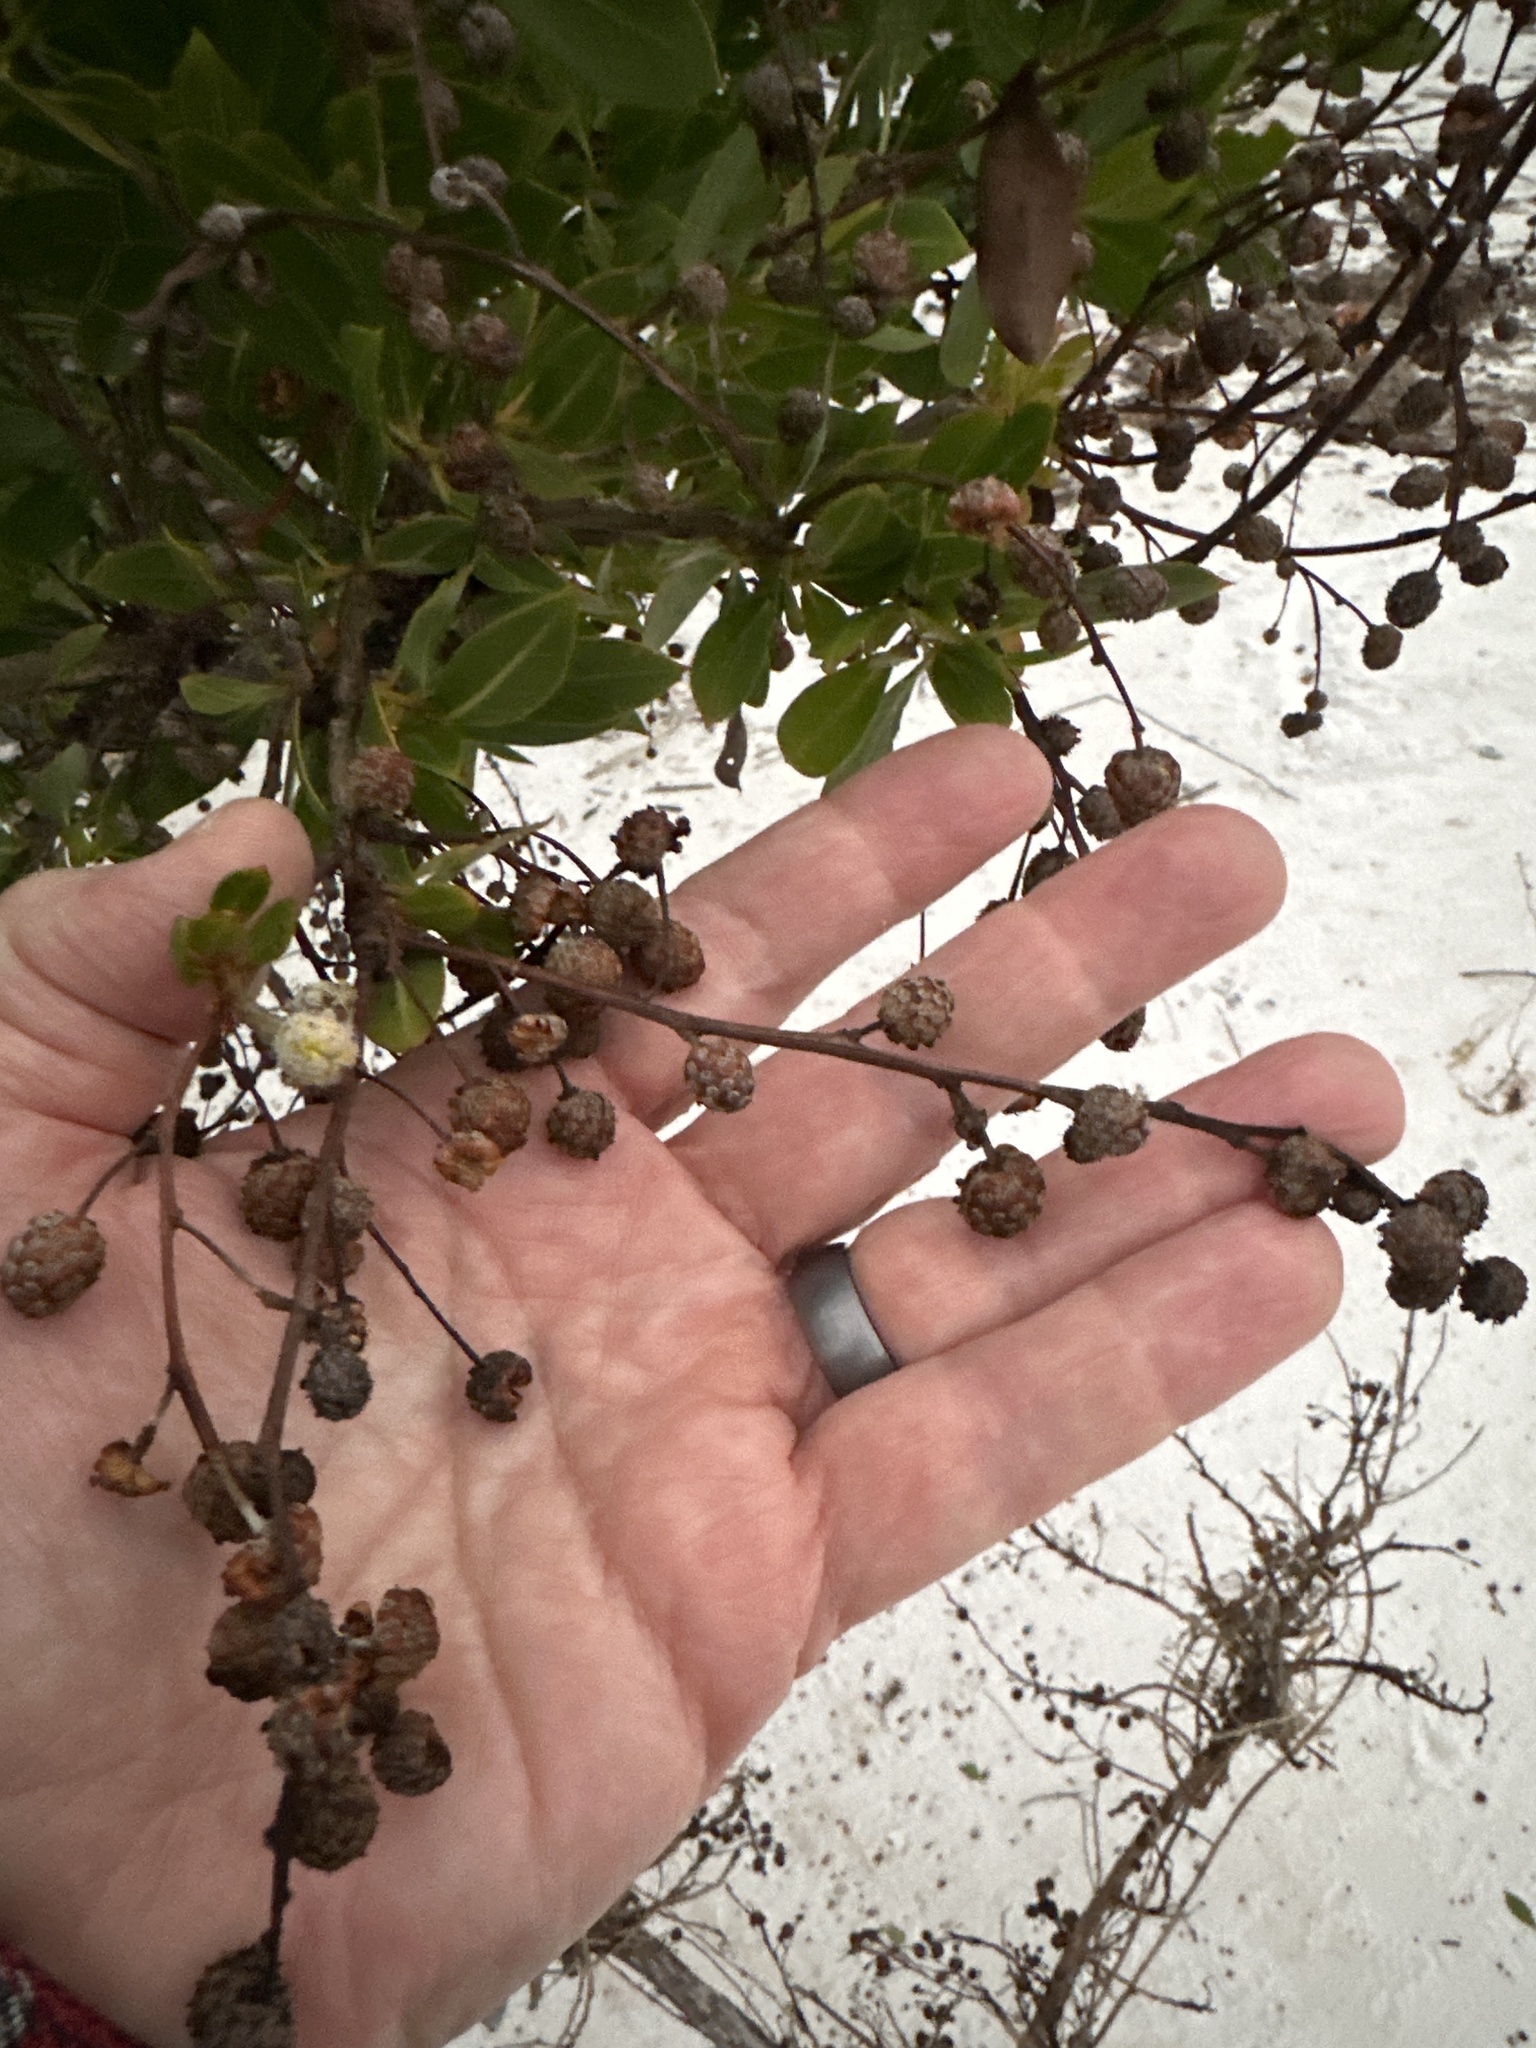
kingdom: Plantae
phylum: Tracheophyta
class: Magnoliopsida
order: Myrtales
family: Combretaceae
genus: Conocarpus
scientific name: Conocarpus erectus
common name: Button mangrove
